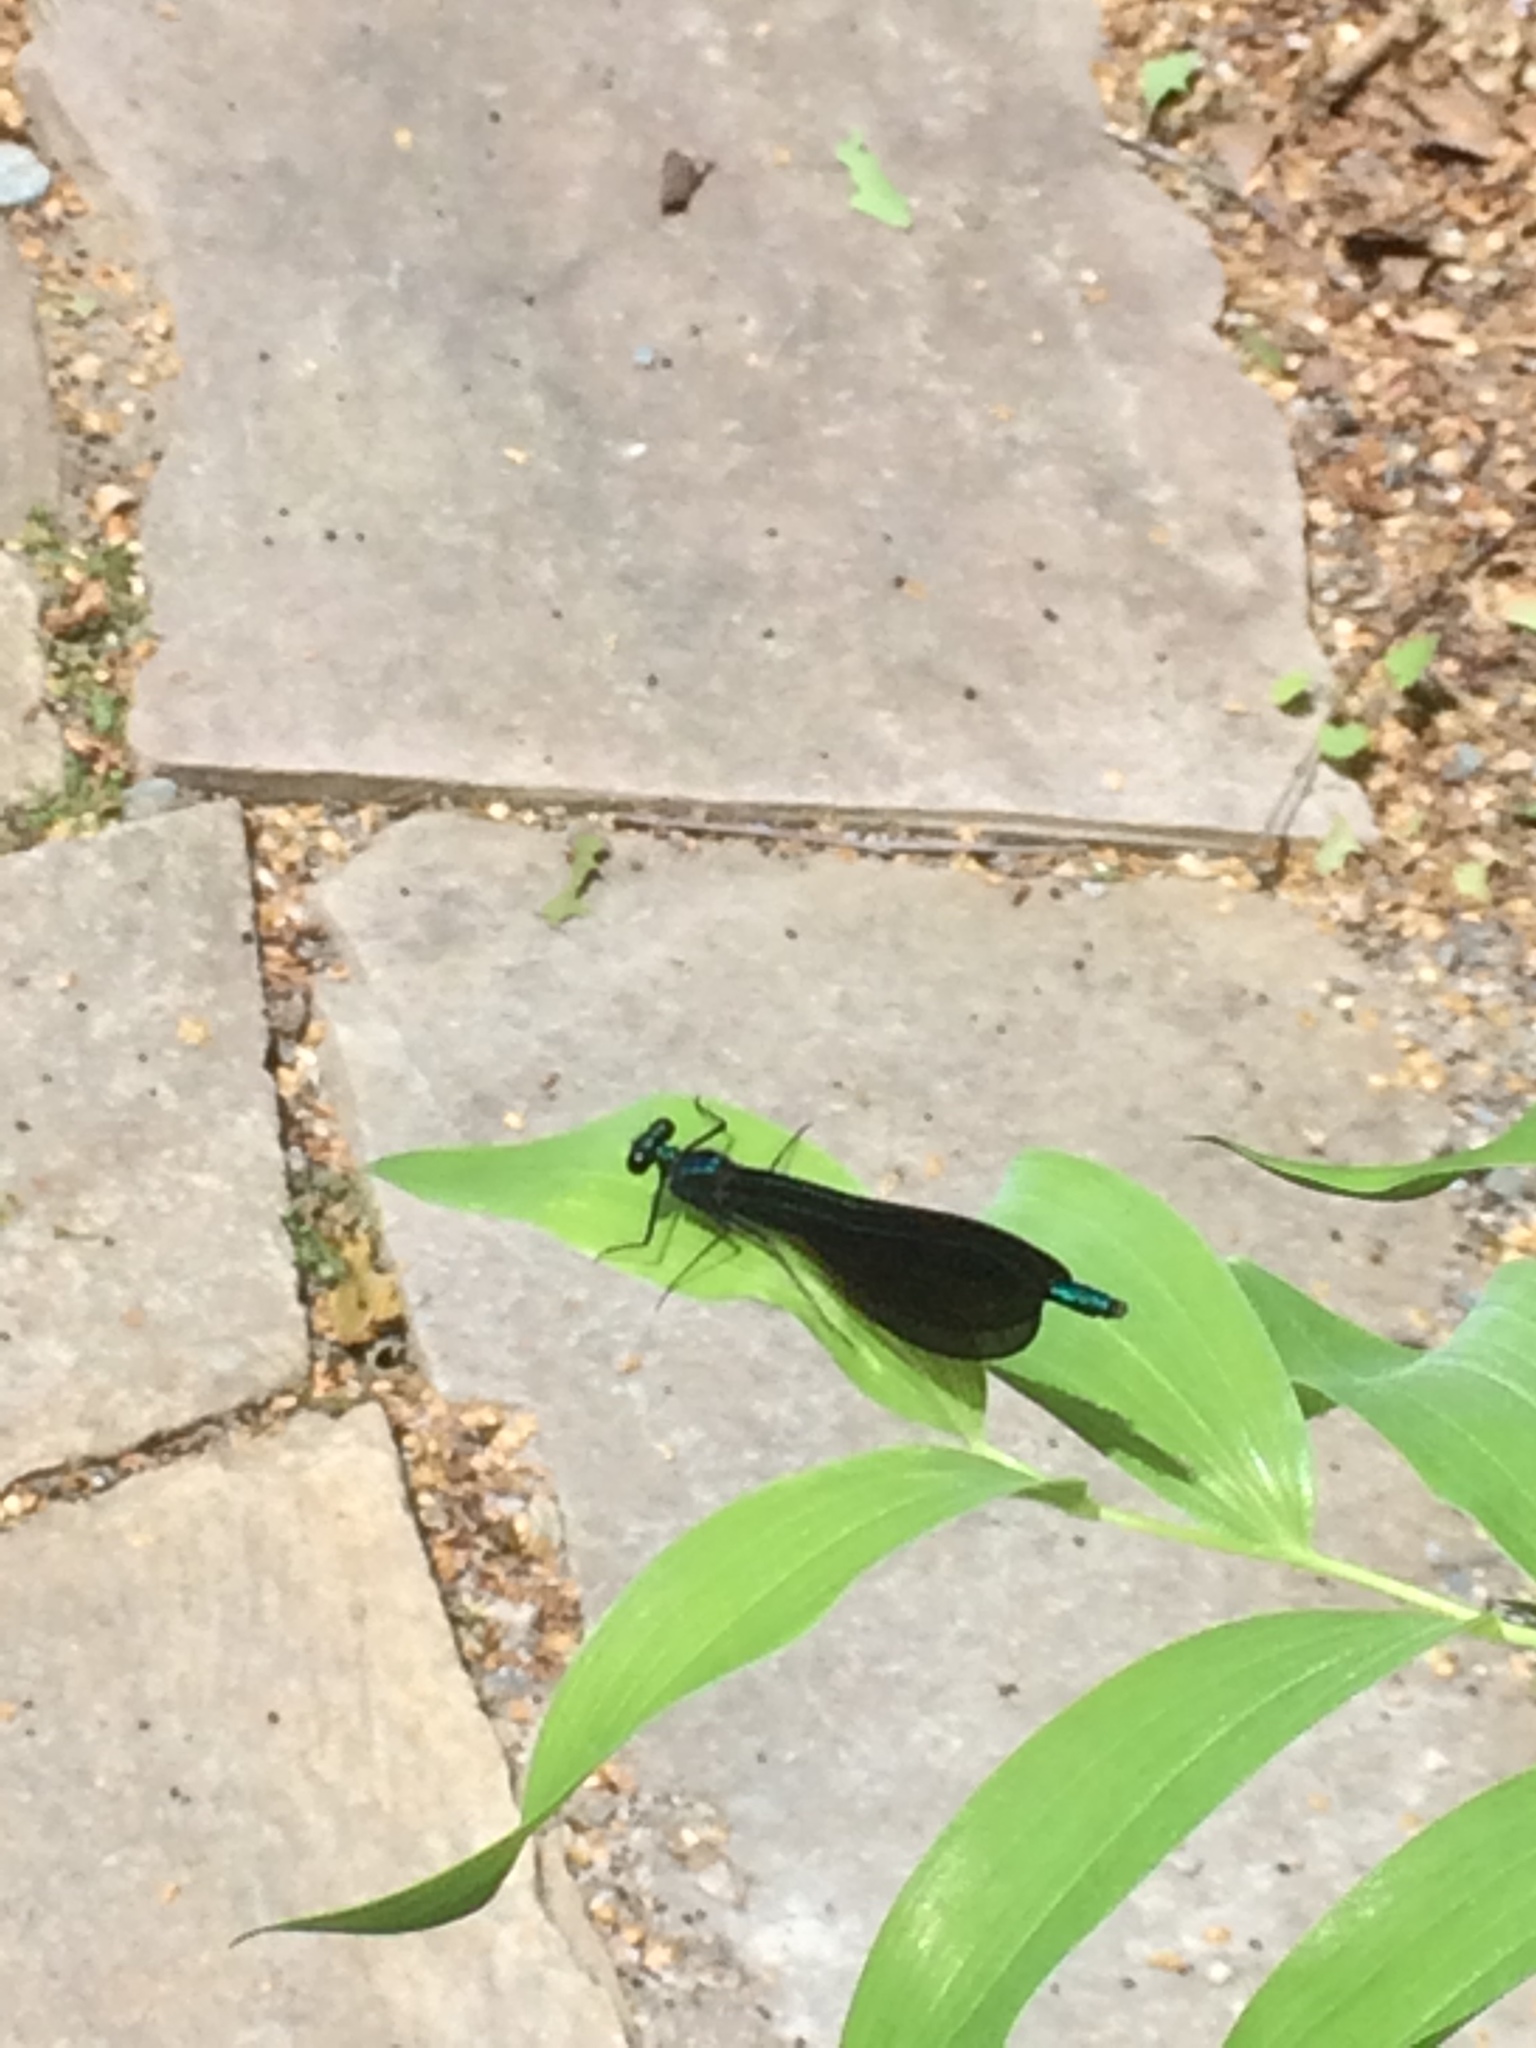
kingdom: Animalia
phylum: Arthropoda
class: Insecta
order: Odonata
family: Calopterygidae
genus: Calopteryx
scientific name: Calopteryx maculata
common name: Ebony jewelwing
